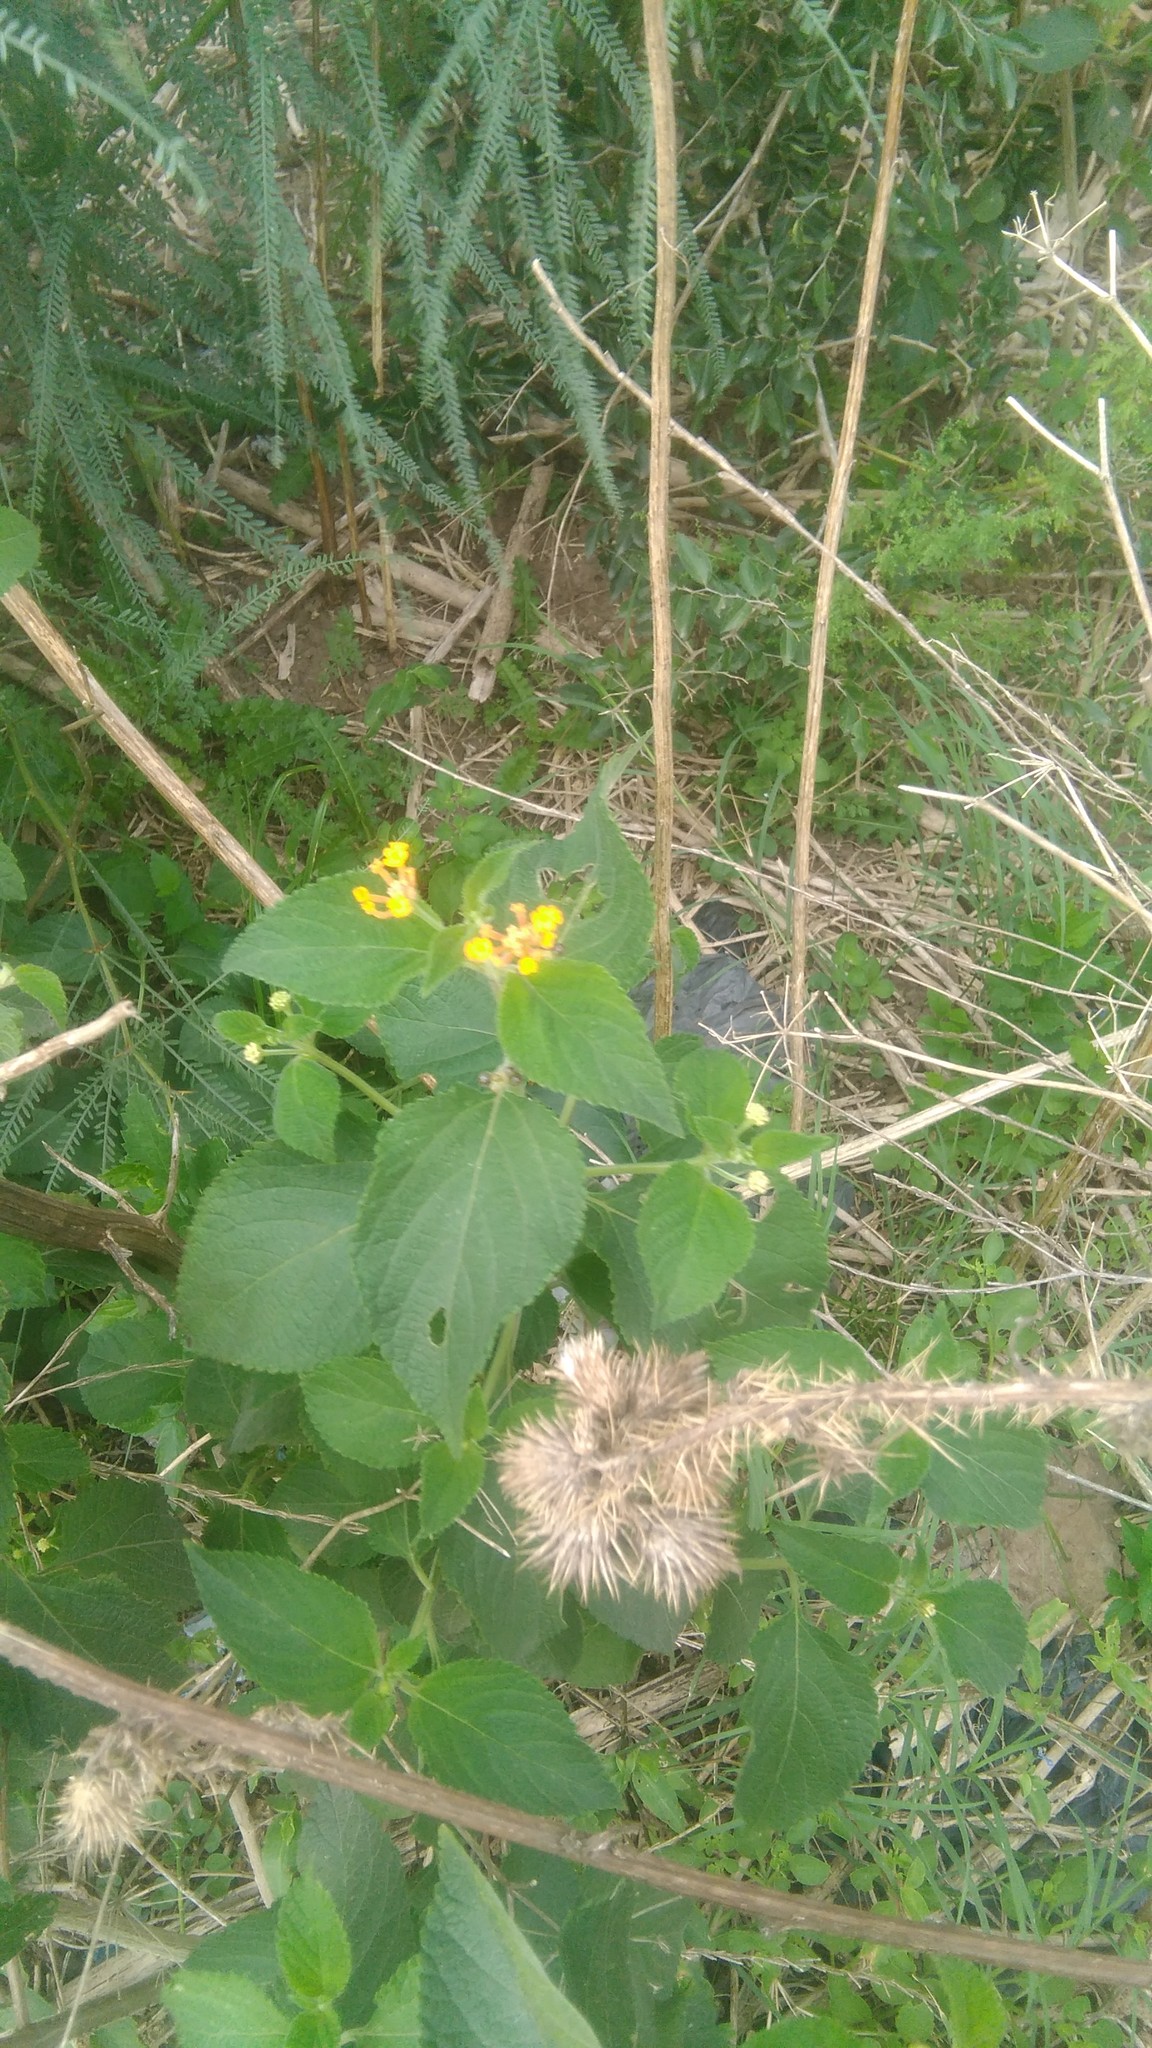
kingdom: Plantae
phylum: Tracheophyta
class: Magnoliopsida
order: Lamiales
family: Verbenaceae
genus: Lantana
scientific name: Lantana camara
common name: Lantana
